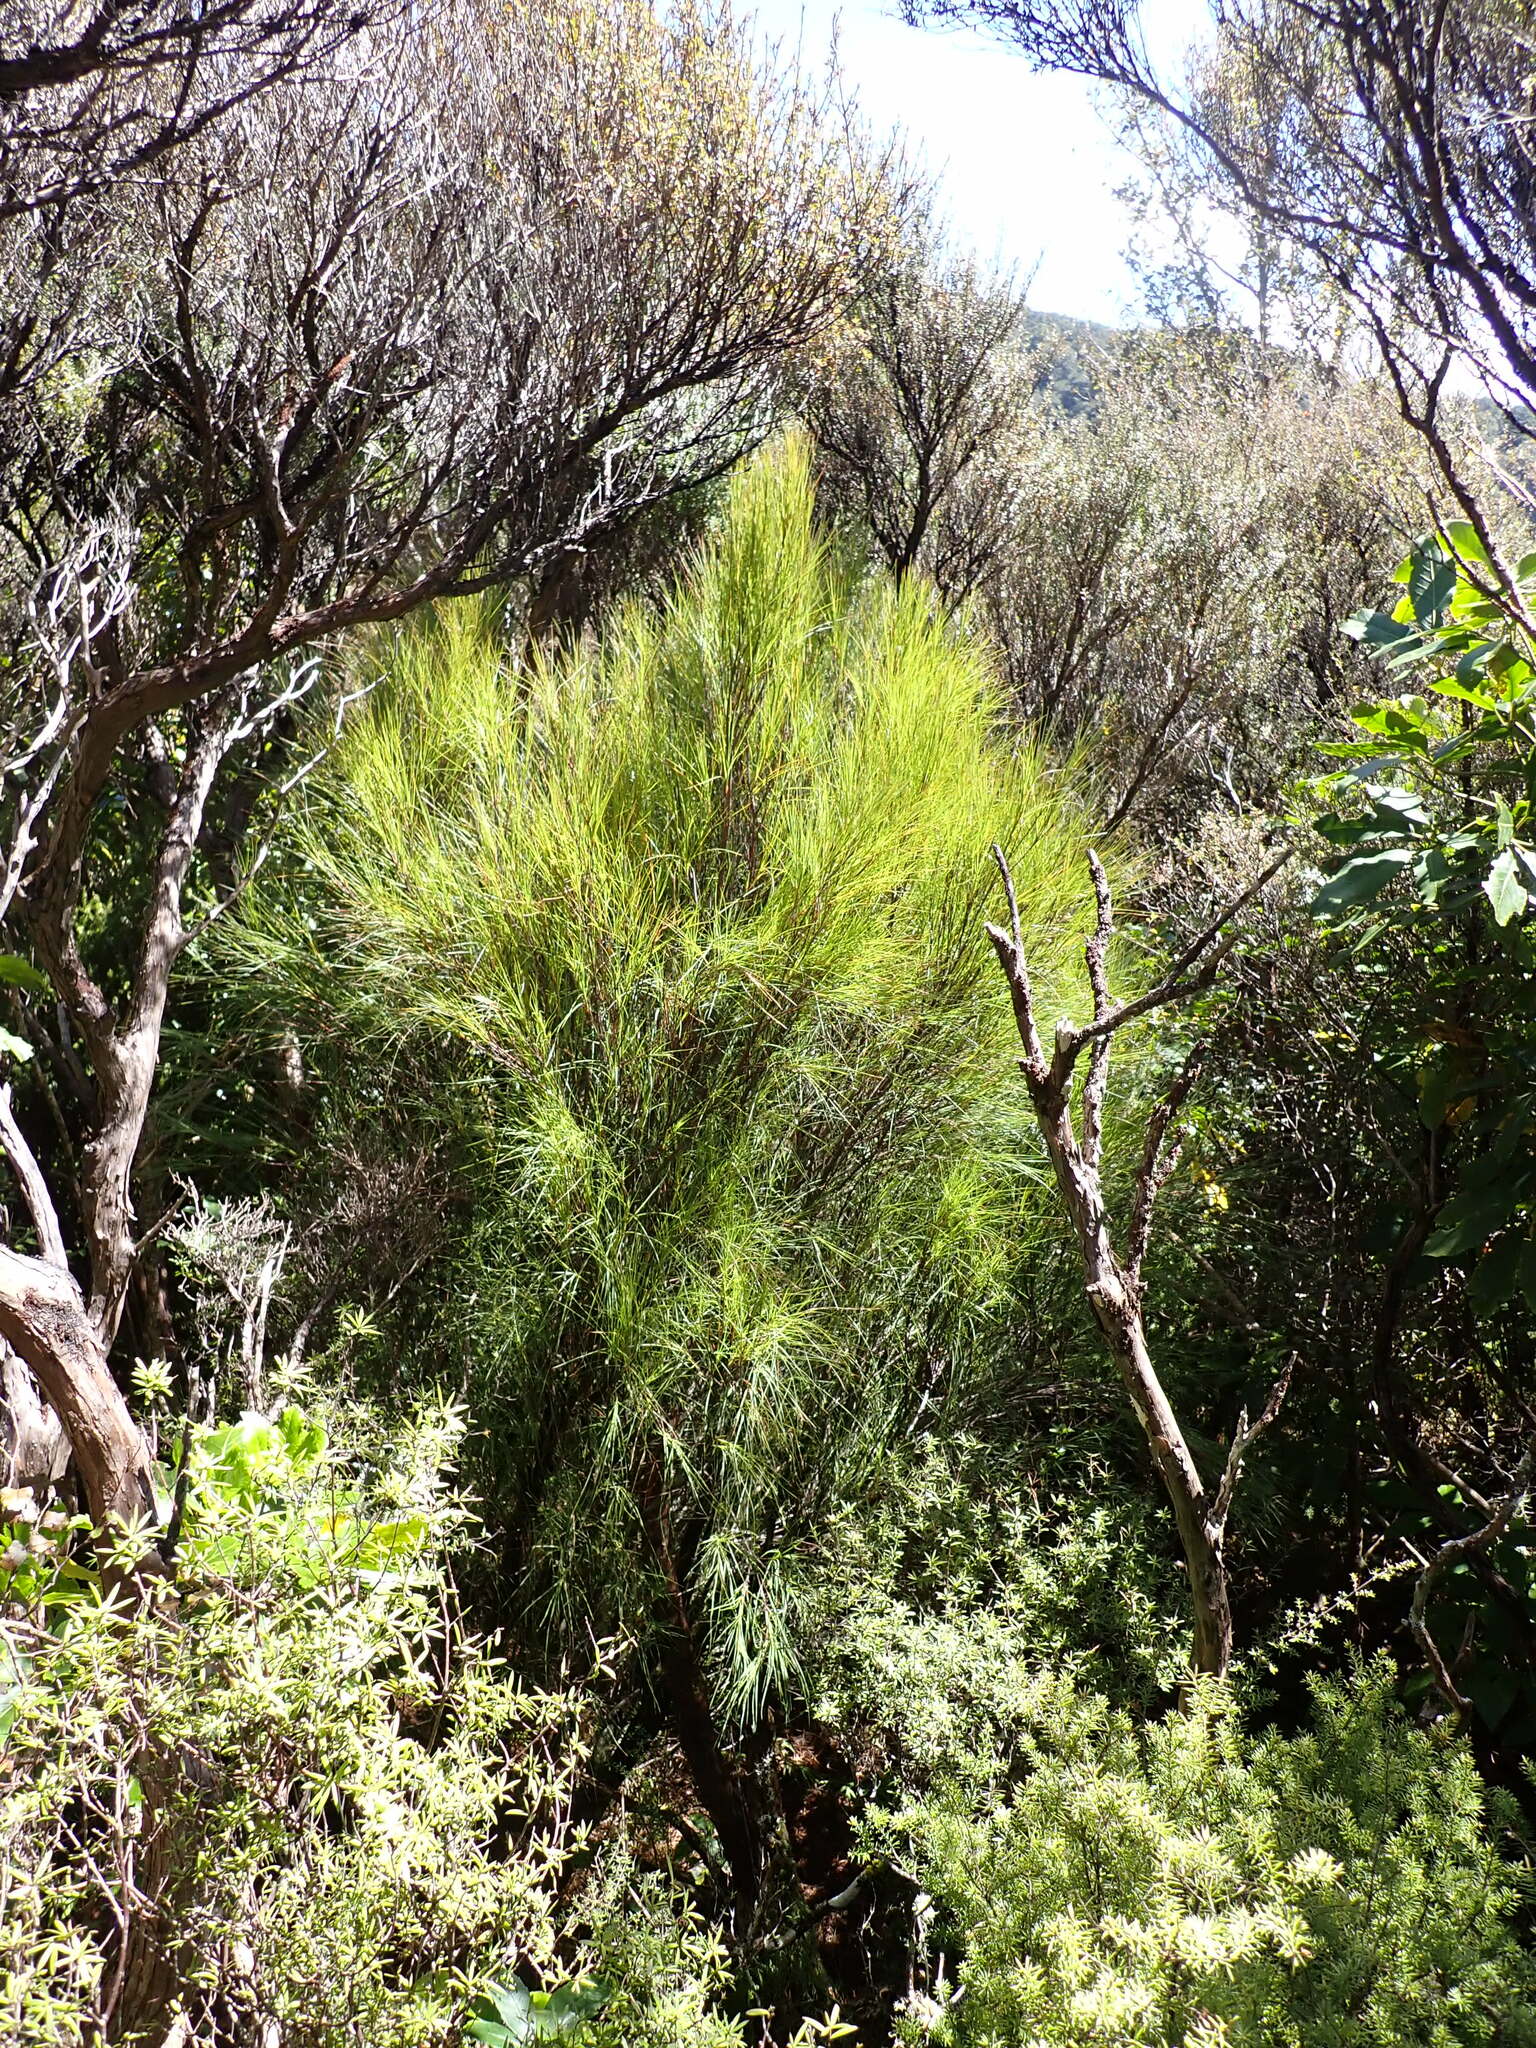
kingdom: Plantae
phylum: Tracheophyta
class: Magnoliopsida
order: Ericales
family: Ericaceae
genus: Dracophyllum
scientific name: Dracophyllum filifolium
